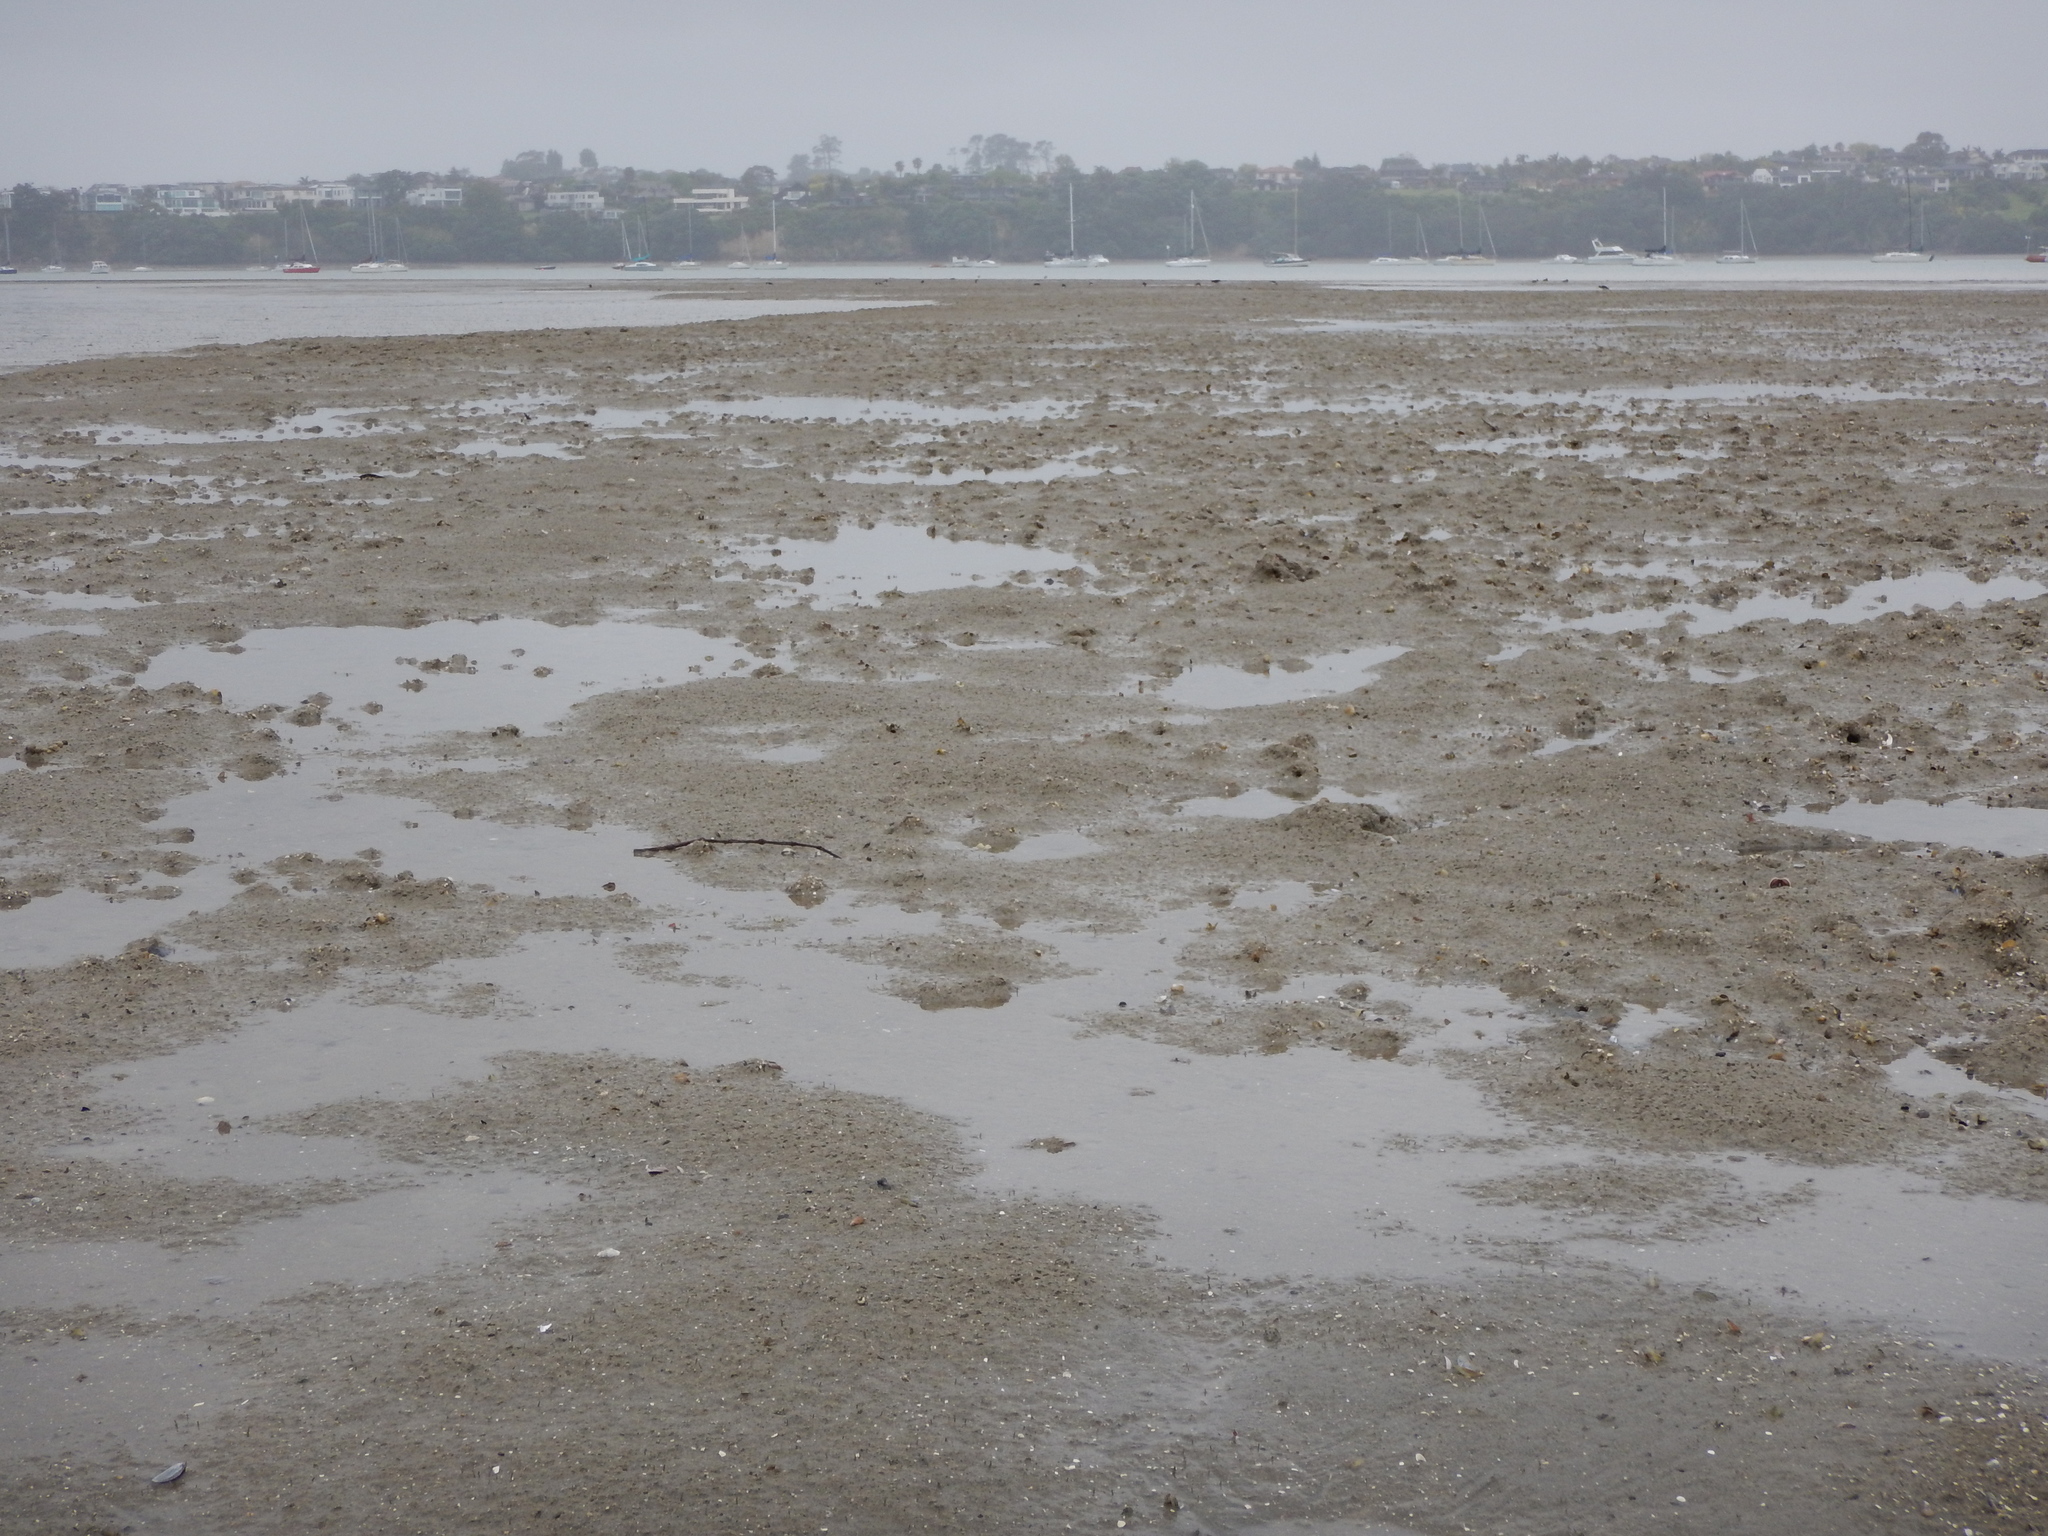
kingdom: Animalia
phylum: Mollusca
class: Bivalvia
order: Mytilida
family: Mytilidae
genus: Arcuatula
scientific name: Arcuatula senhousia
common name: Asian mussel
